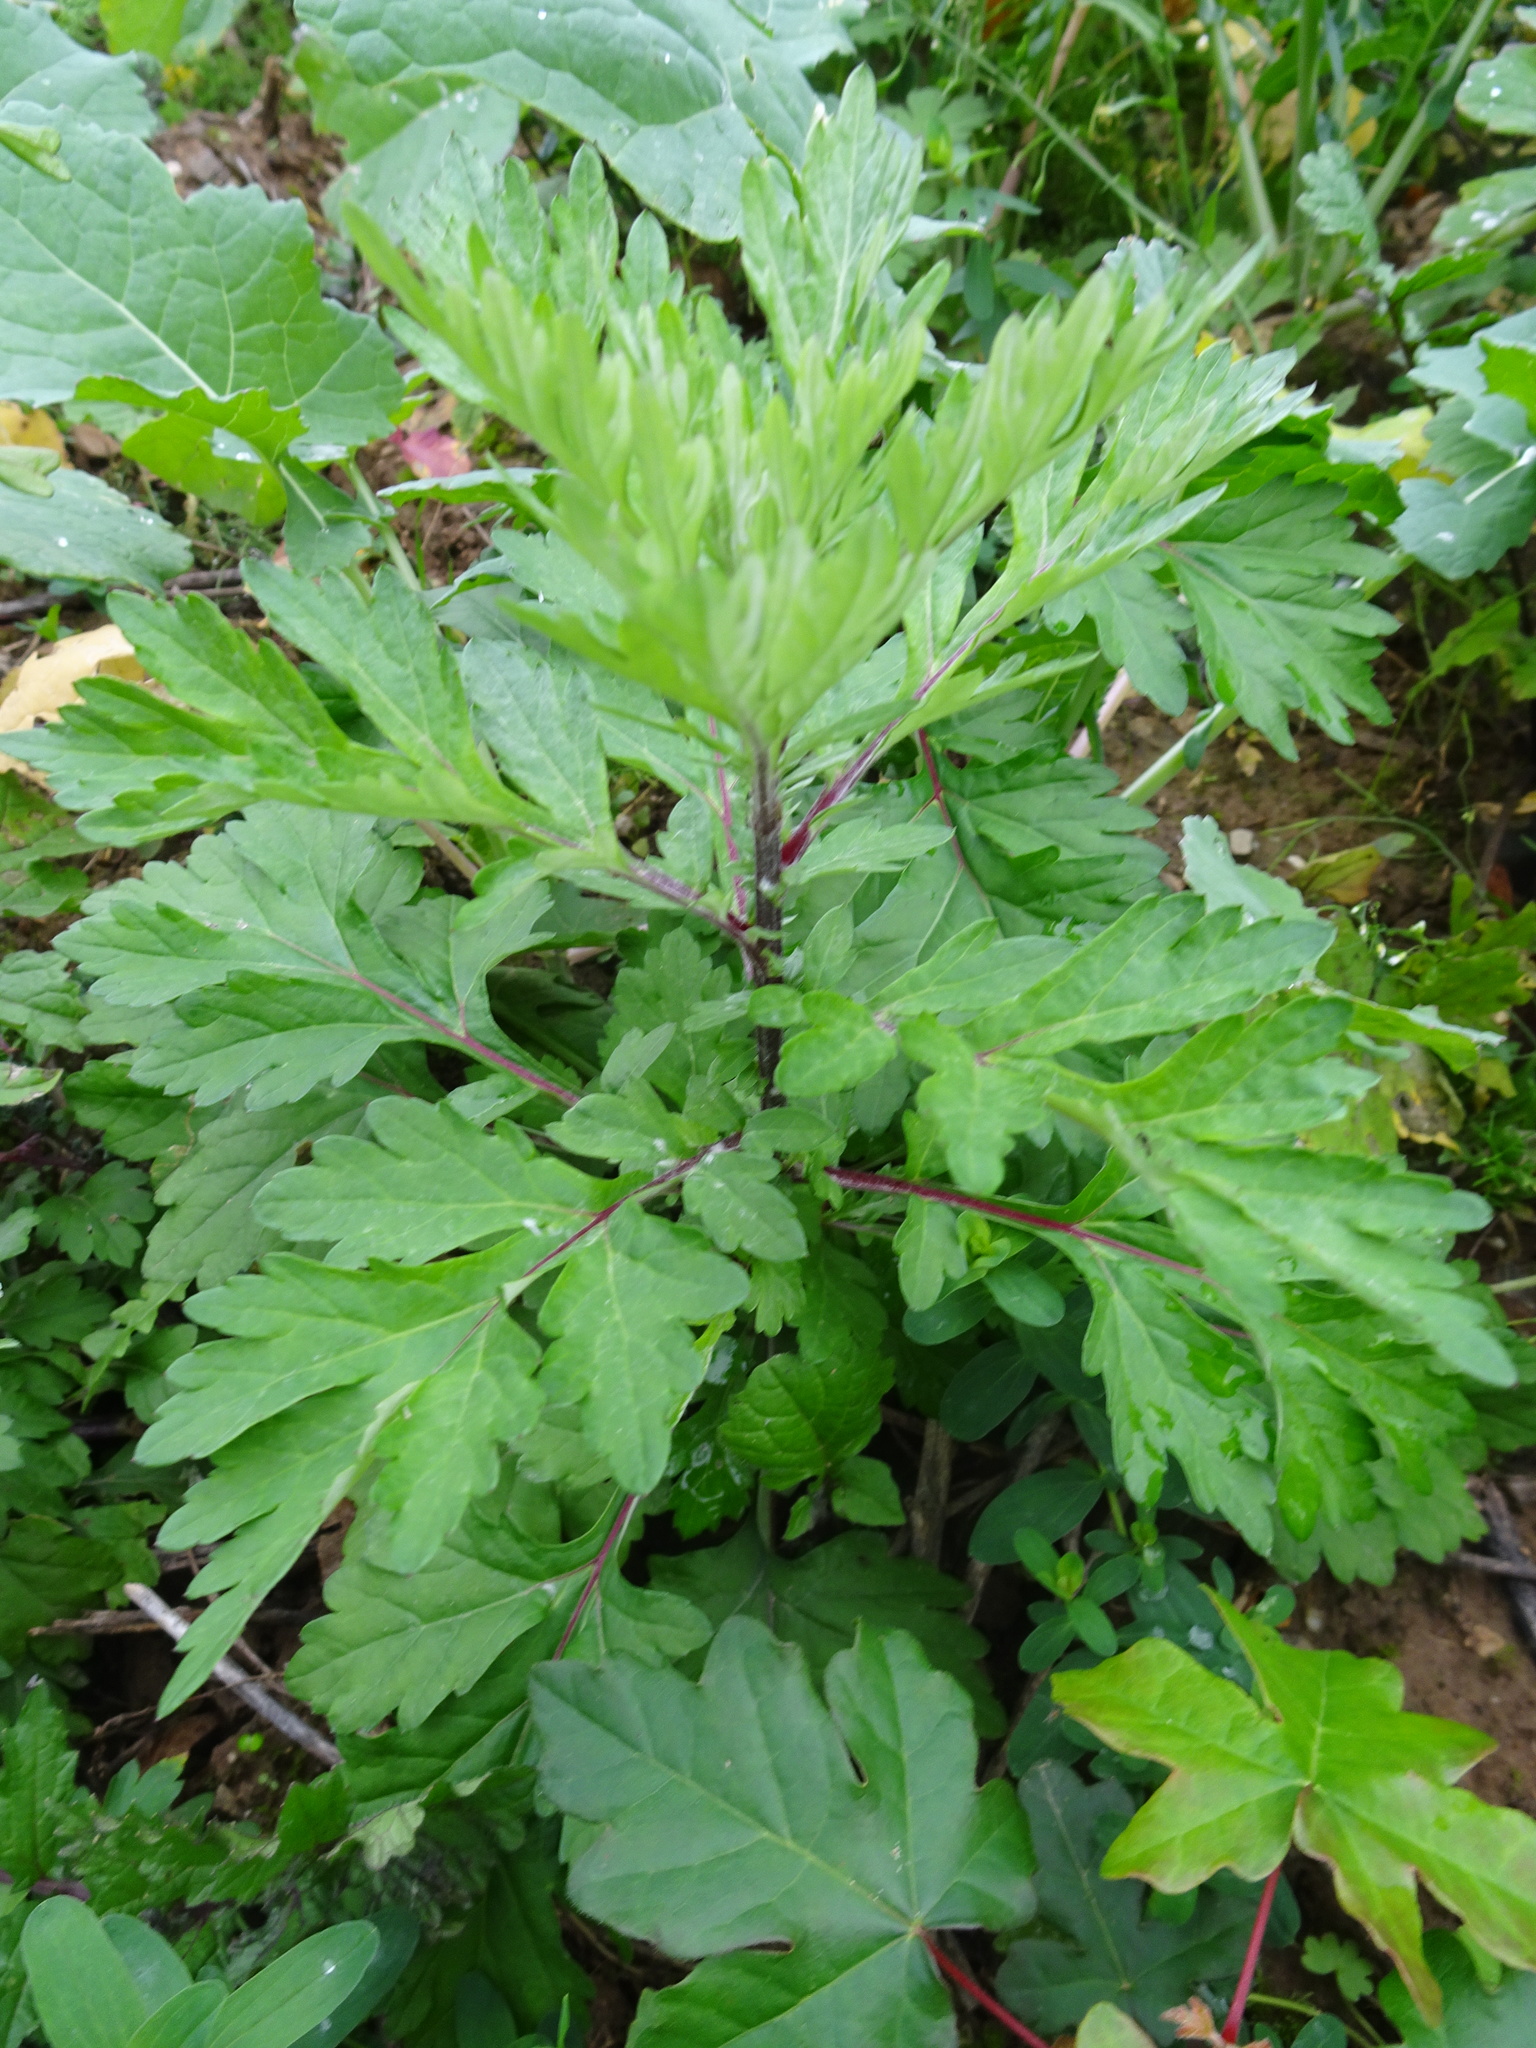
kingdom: Plantae
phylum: Tracheophyta
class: Magnoliopsida
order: Asterales
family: Asteraceae
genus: Artemisia
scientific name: Artemisia vulgaris
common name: Mugwort
